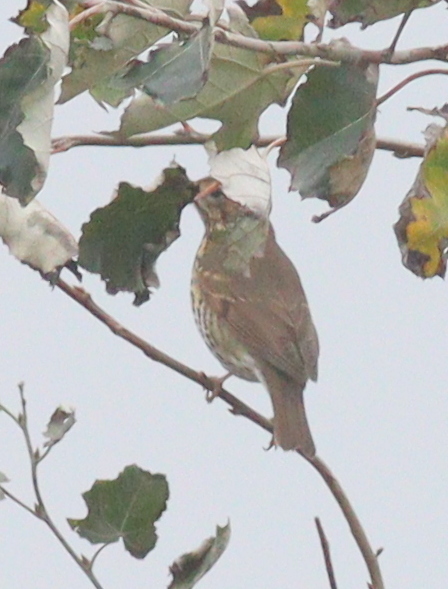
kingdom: Animalia
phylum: Chordata
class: Aves
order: Passeriformes
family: Turdidae
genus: Turdus
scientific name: Turdus philomelos
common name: Song thrush
